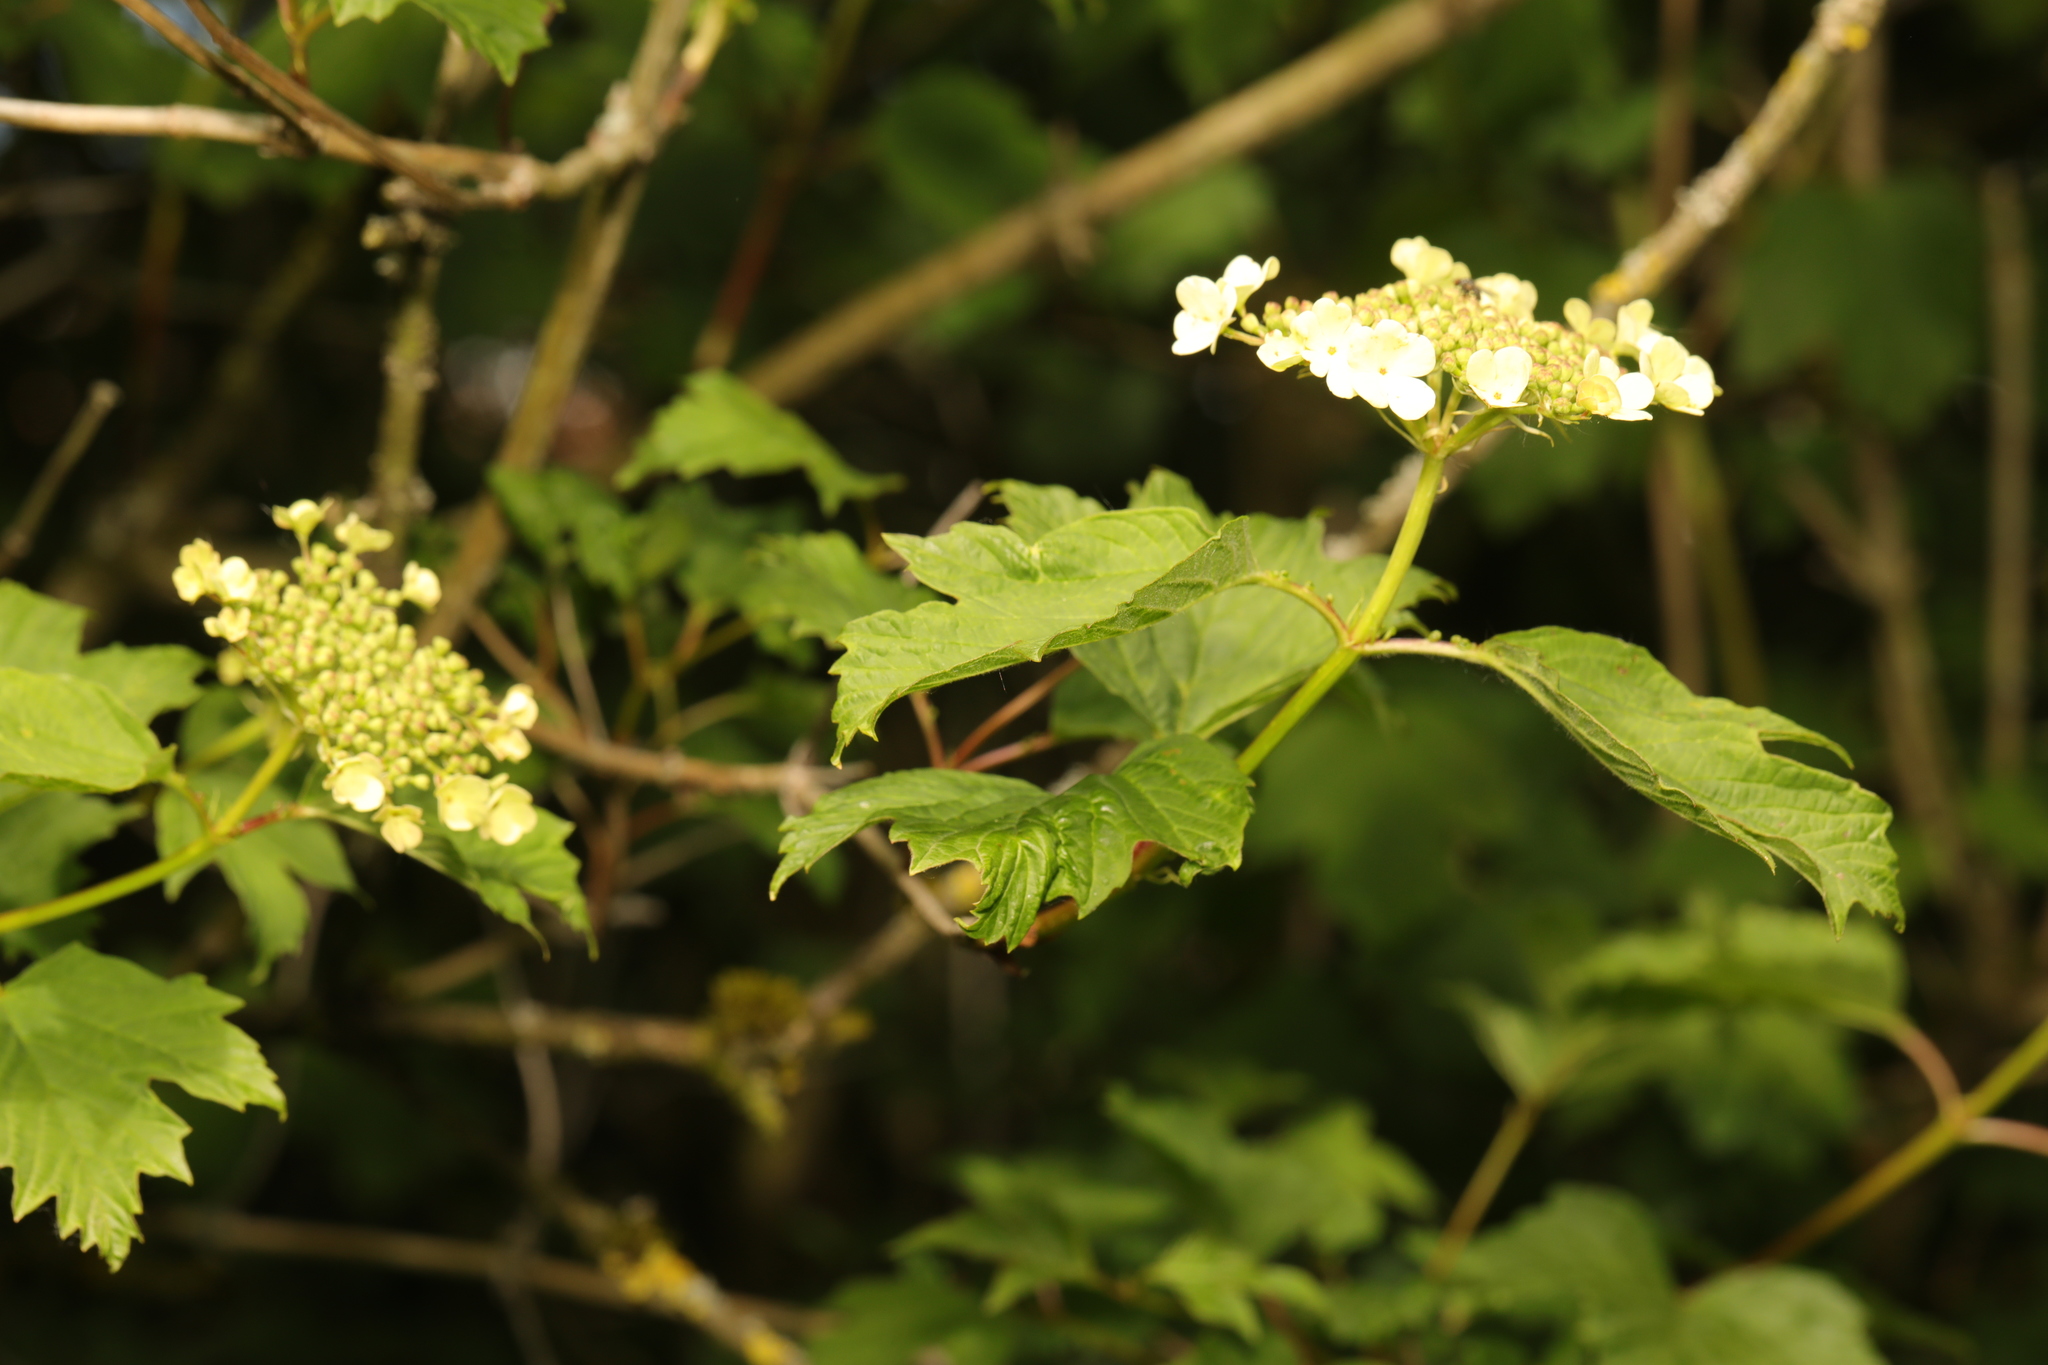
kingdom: Plantae
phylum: Tracheophyta
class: Magnoliopsida
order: Dipsacales
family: Viburnaceae
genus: Viburnum
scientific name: Viburnum opulus
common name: Guelder-rose
